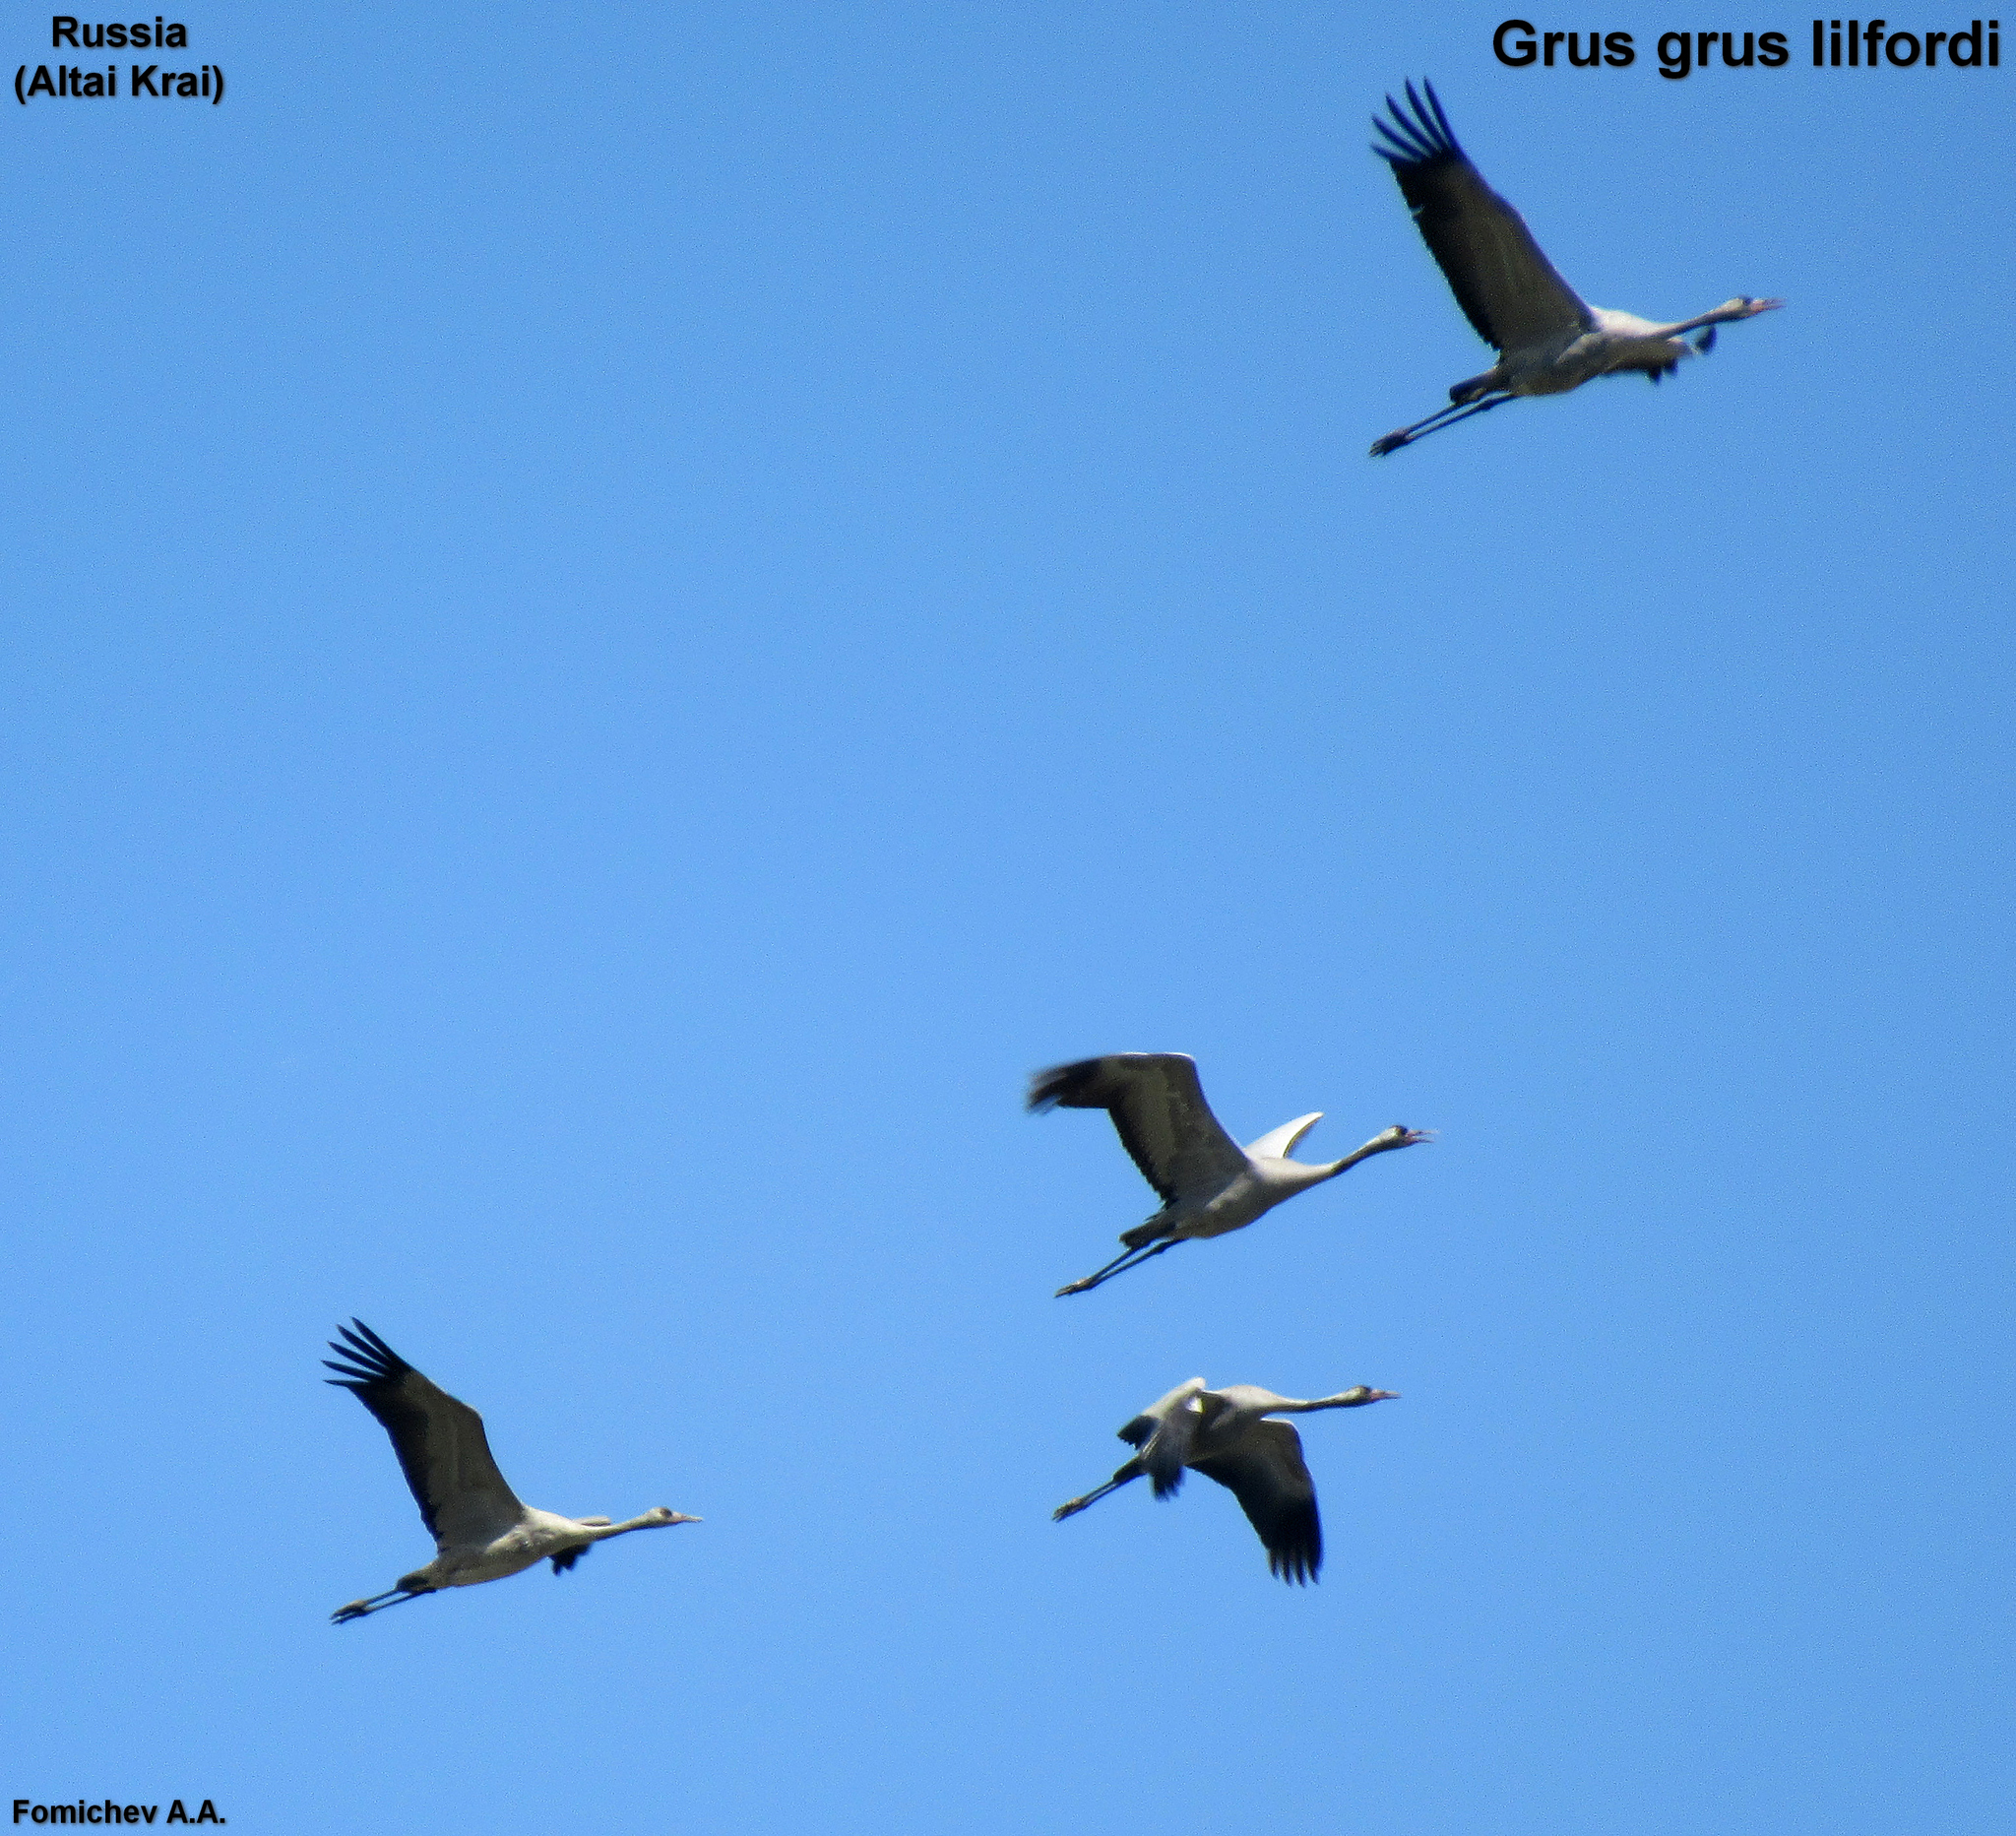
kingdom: Animalia
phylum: Chordata
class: Aves
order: Gruiformes
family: Gruidae
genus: Grus
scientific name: Grus grus
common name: Common crane
